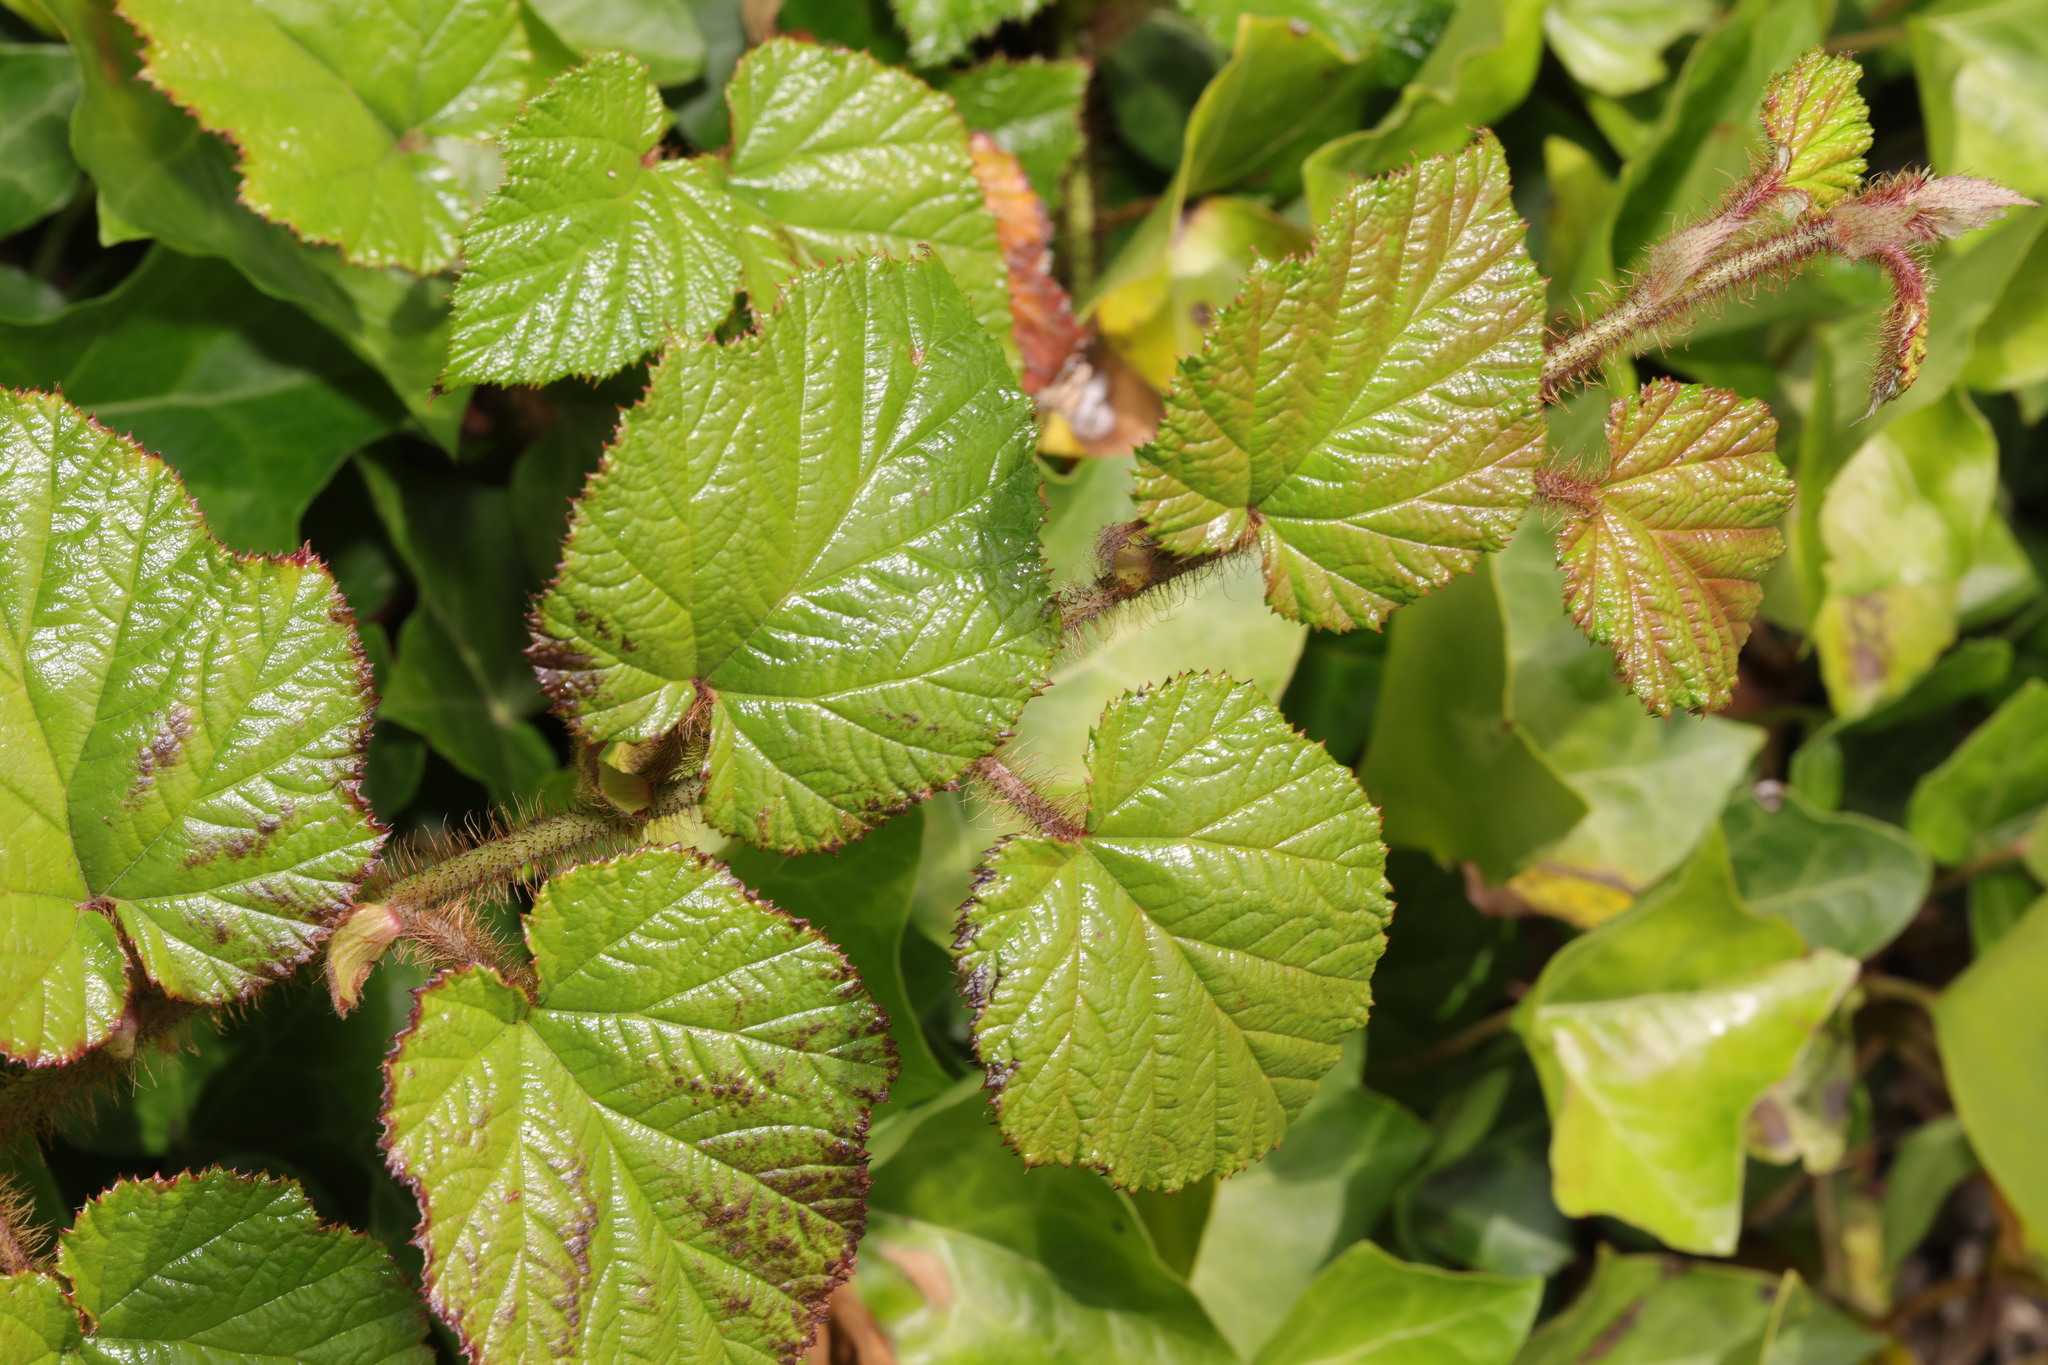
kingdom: Plantae
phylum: Tracheophyta
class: Magnoliopsida
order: Rosales
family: Rosaceae
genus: Rubus
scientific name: Rubus tricolor
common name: Chinese bramble
